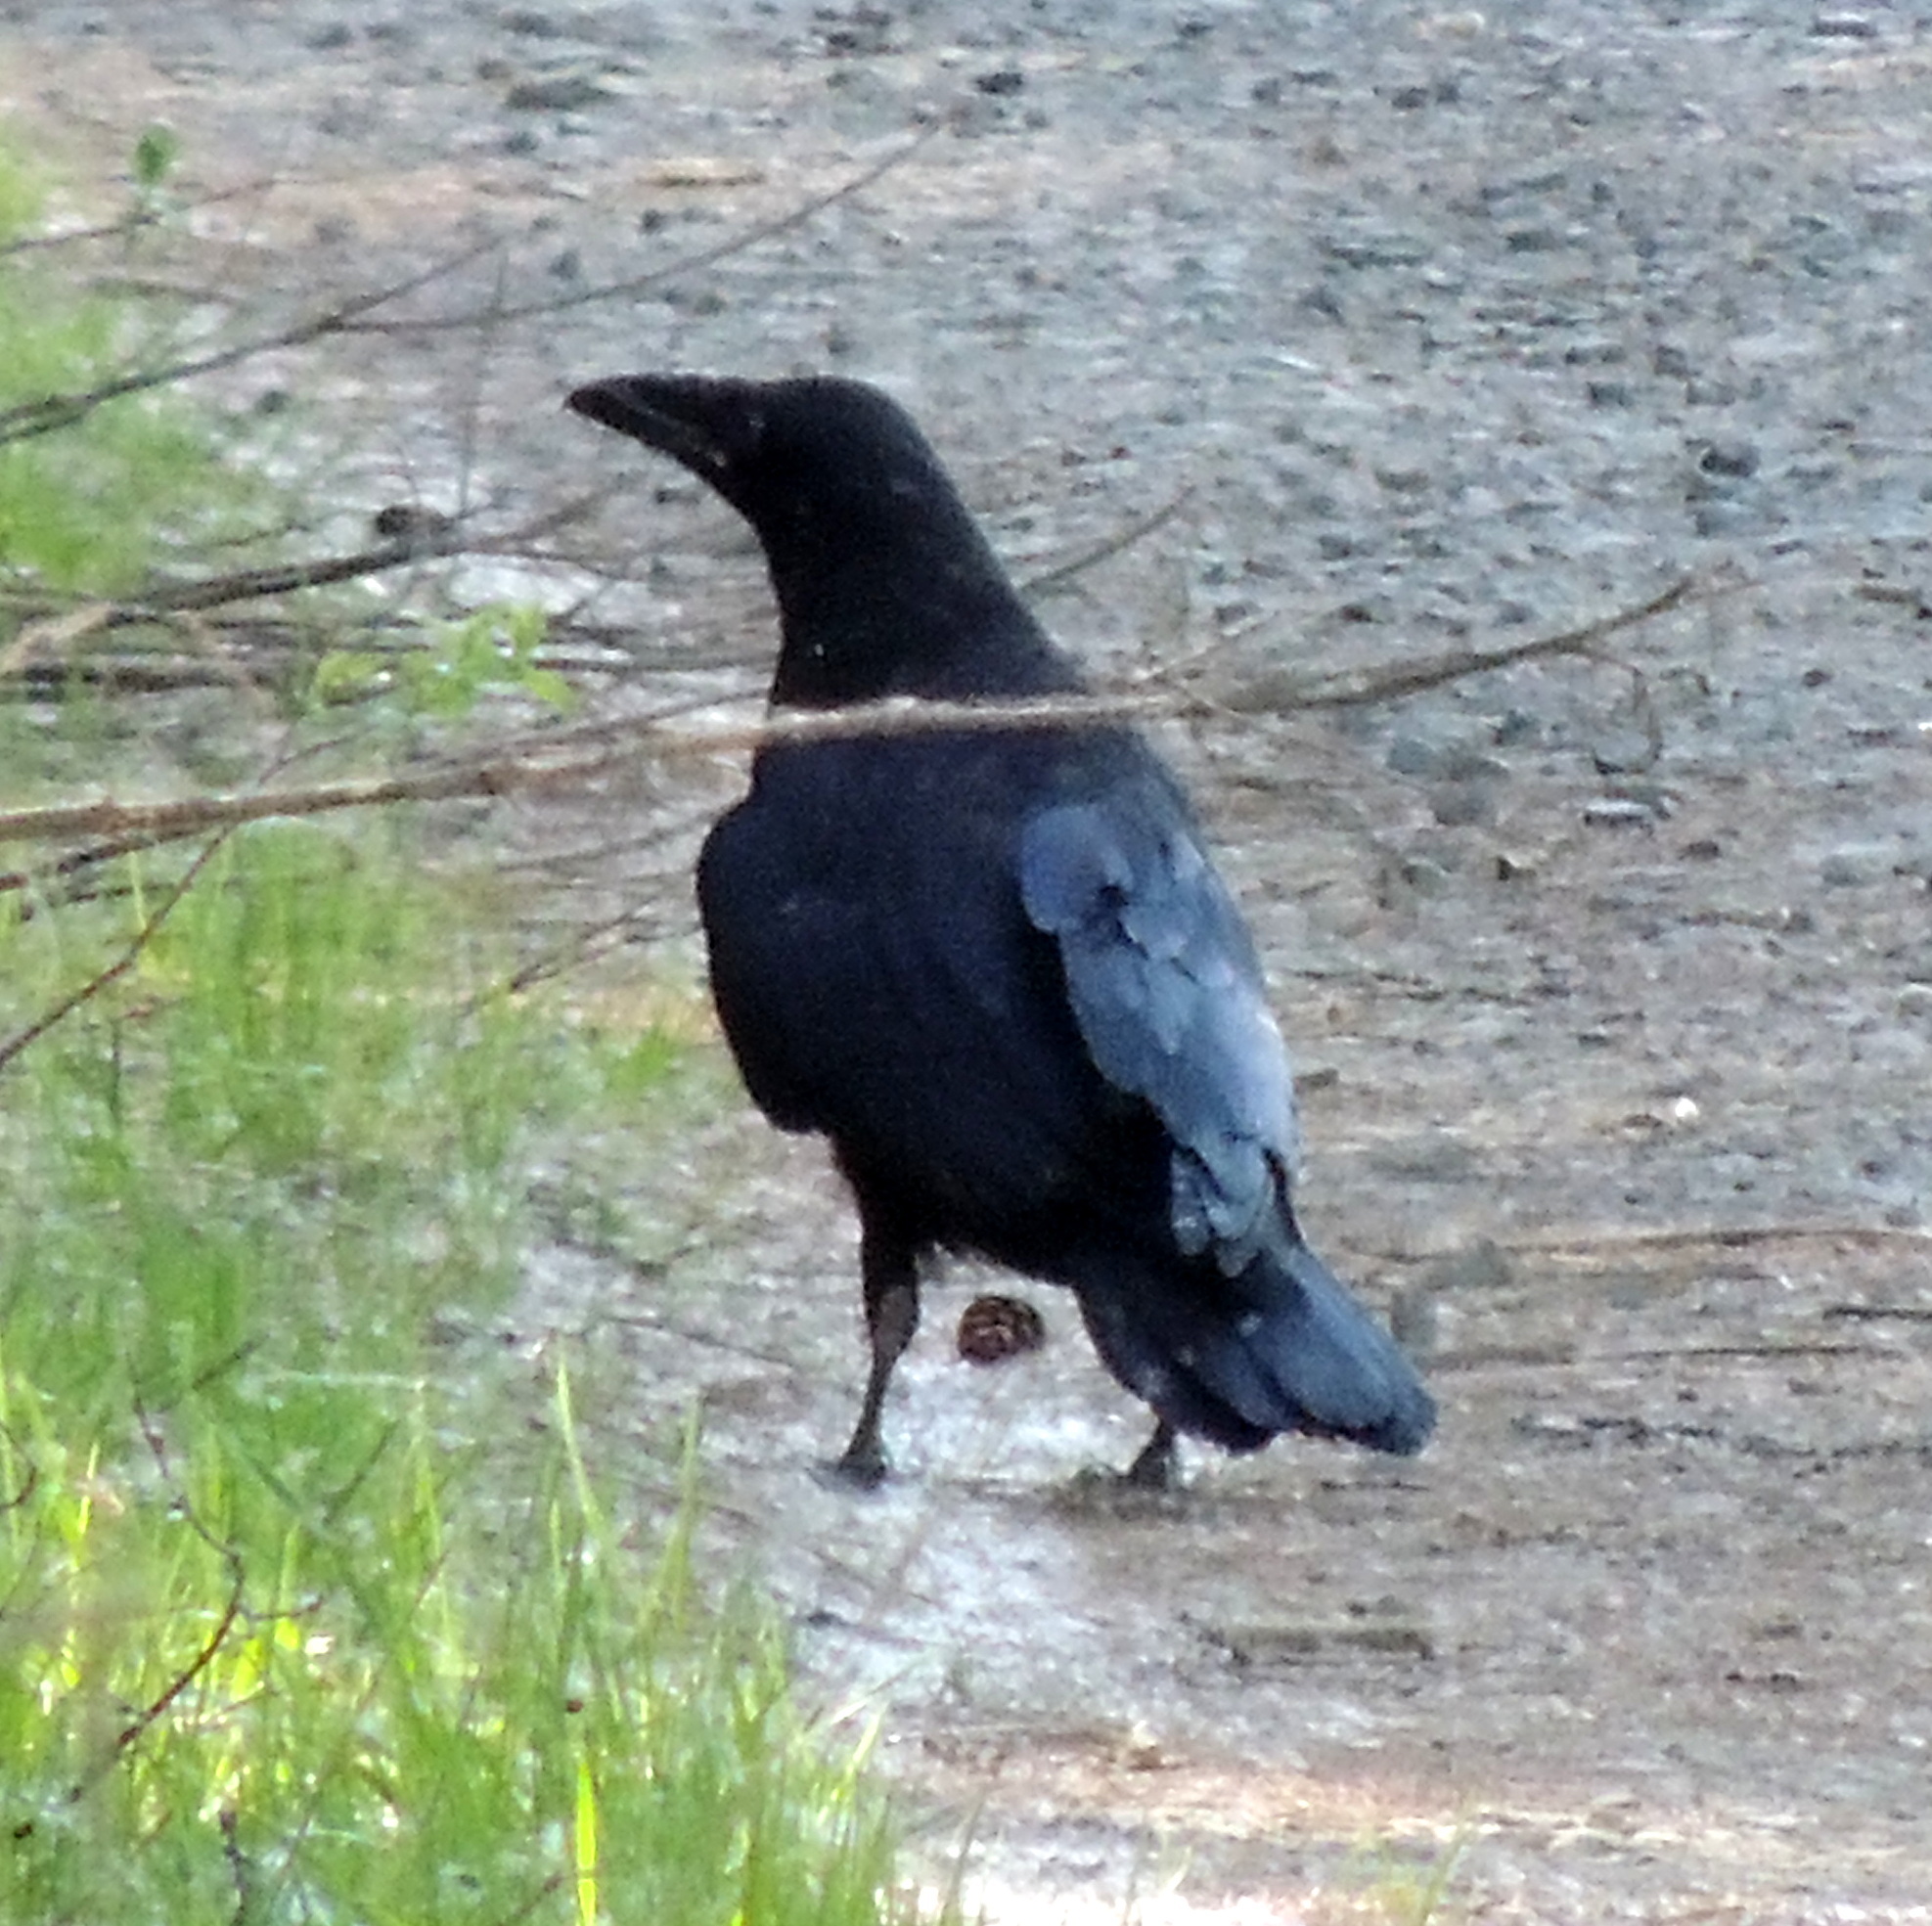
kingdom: Animalia
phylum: Chordata
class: Aves
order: Passeriformes
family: Corvidae
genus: Corvus
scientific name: Corvus corax
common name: Common raven
